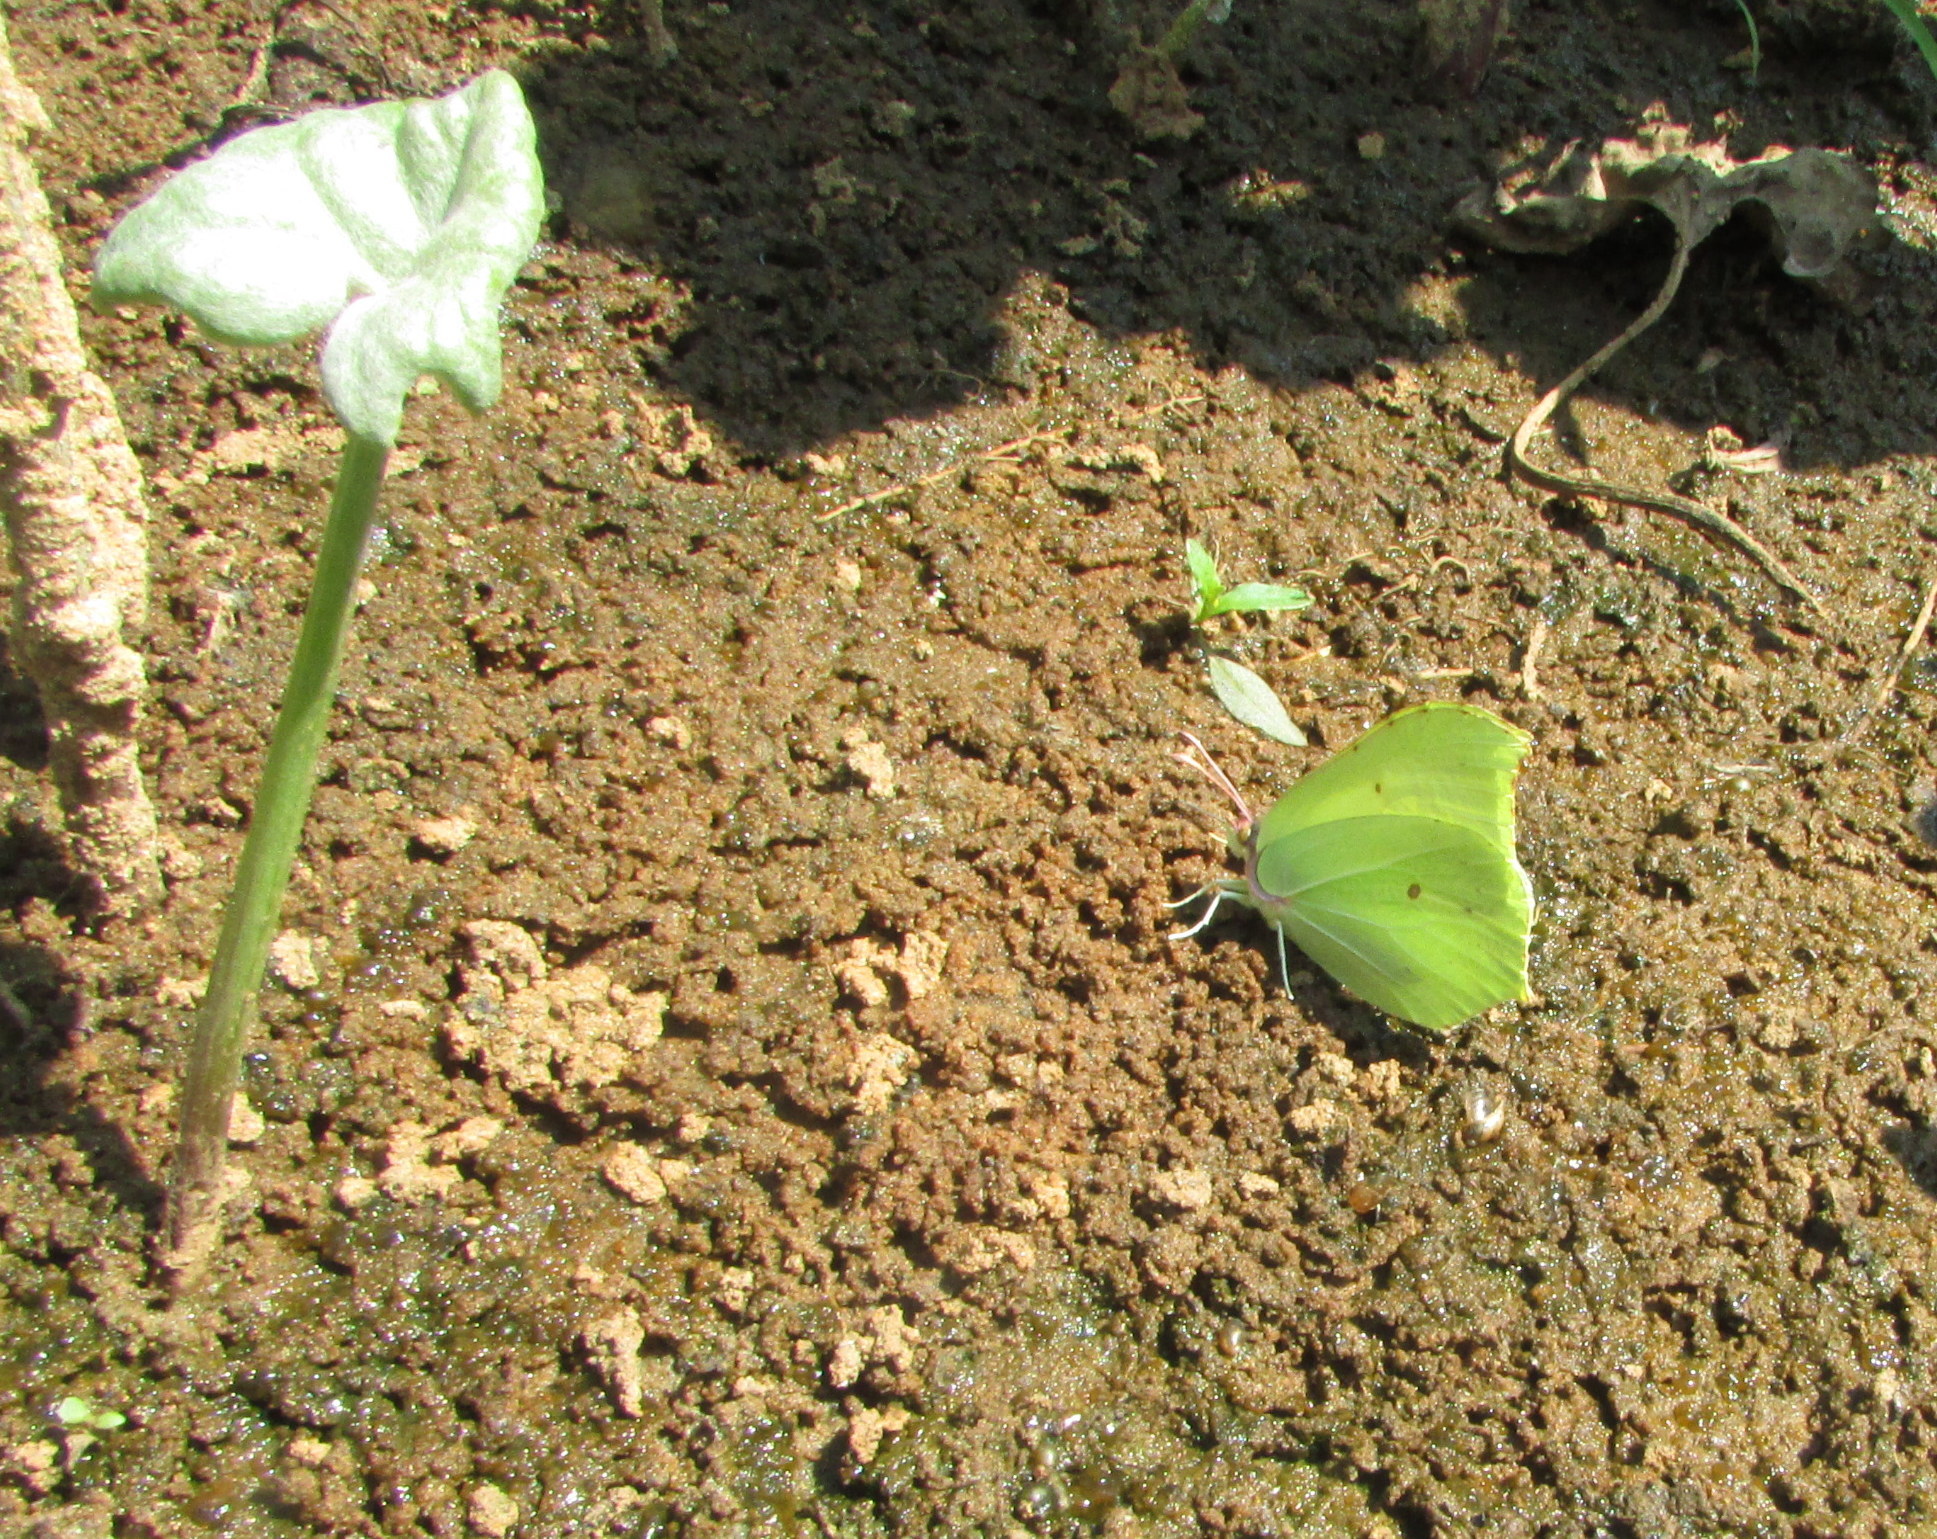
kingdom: Animalia
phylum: Arthropoda
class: Insecta
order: Lepidoptera
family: Pieridae
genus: Gonepteryx
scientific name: Gonepteryx rhamni
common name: Brimstone
